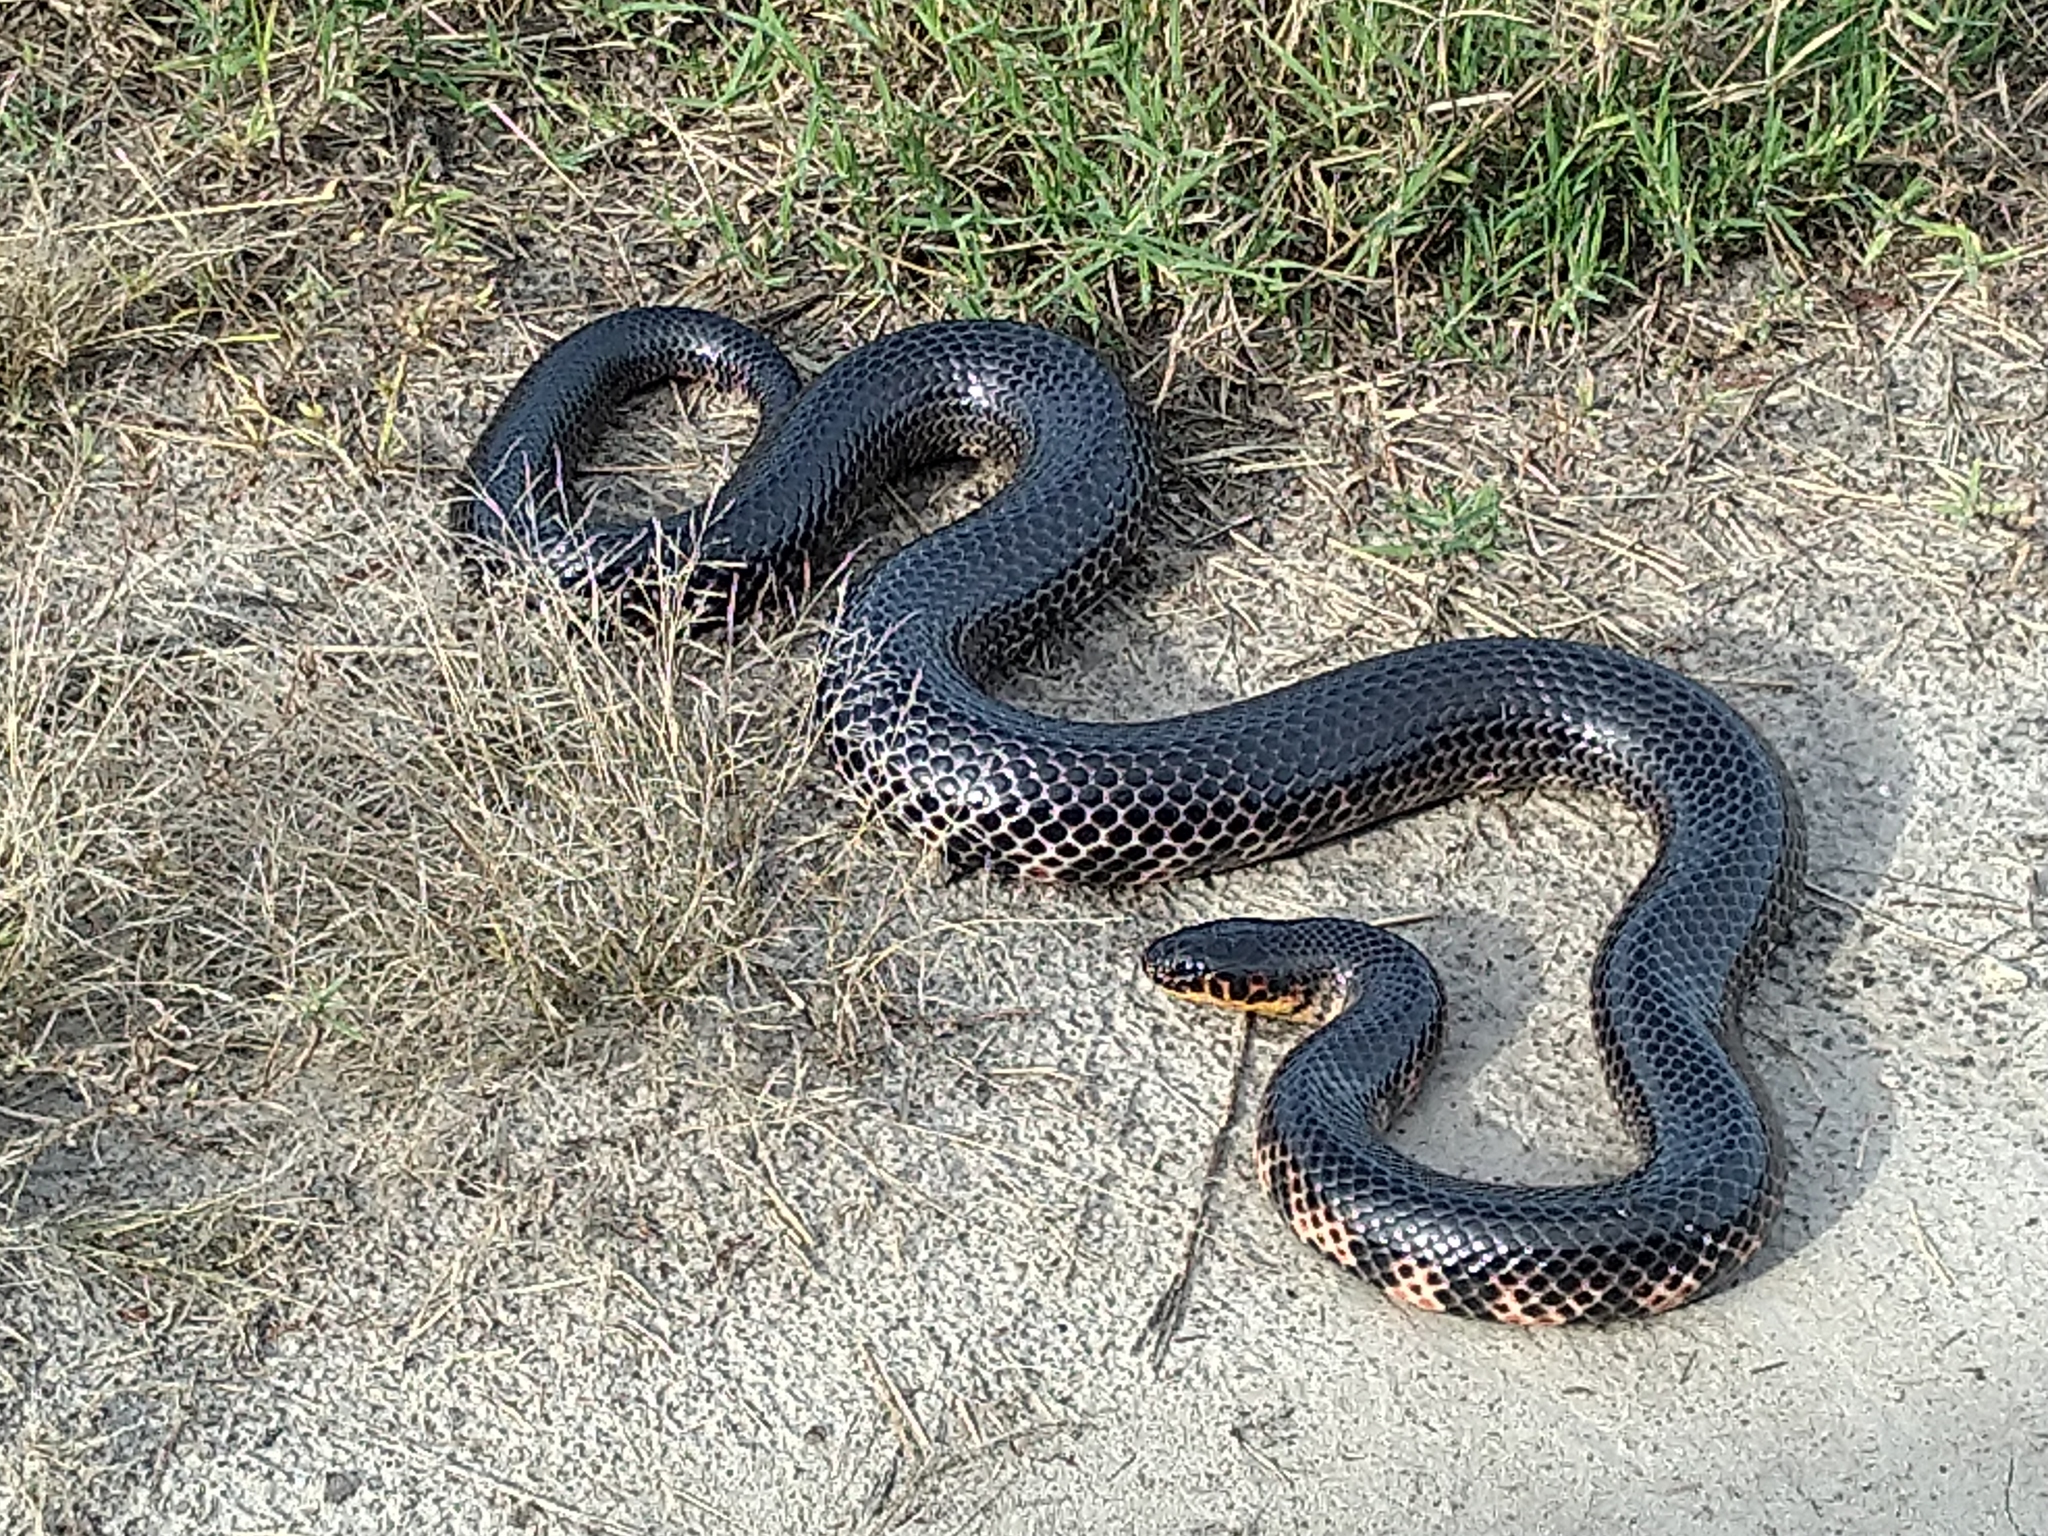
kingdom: Animalia
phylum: Chordata
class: Squamata
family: Colubridae
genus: Farancia
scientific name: Farancia abacura
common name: Mud snake
